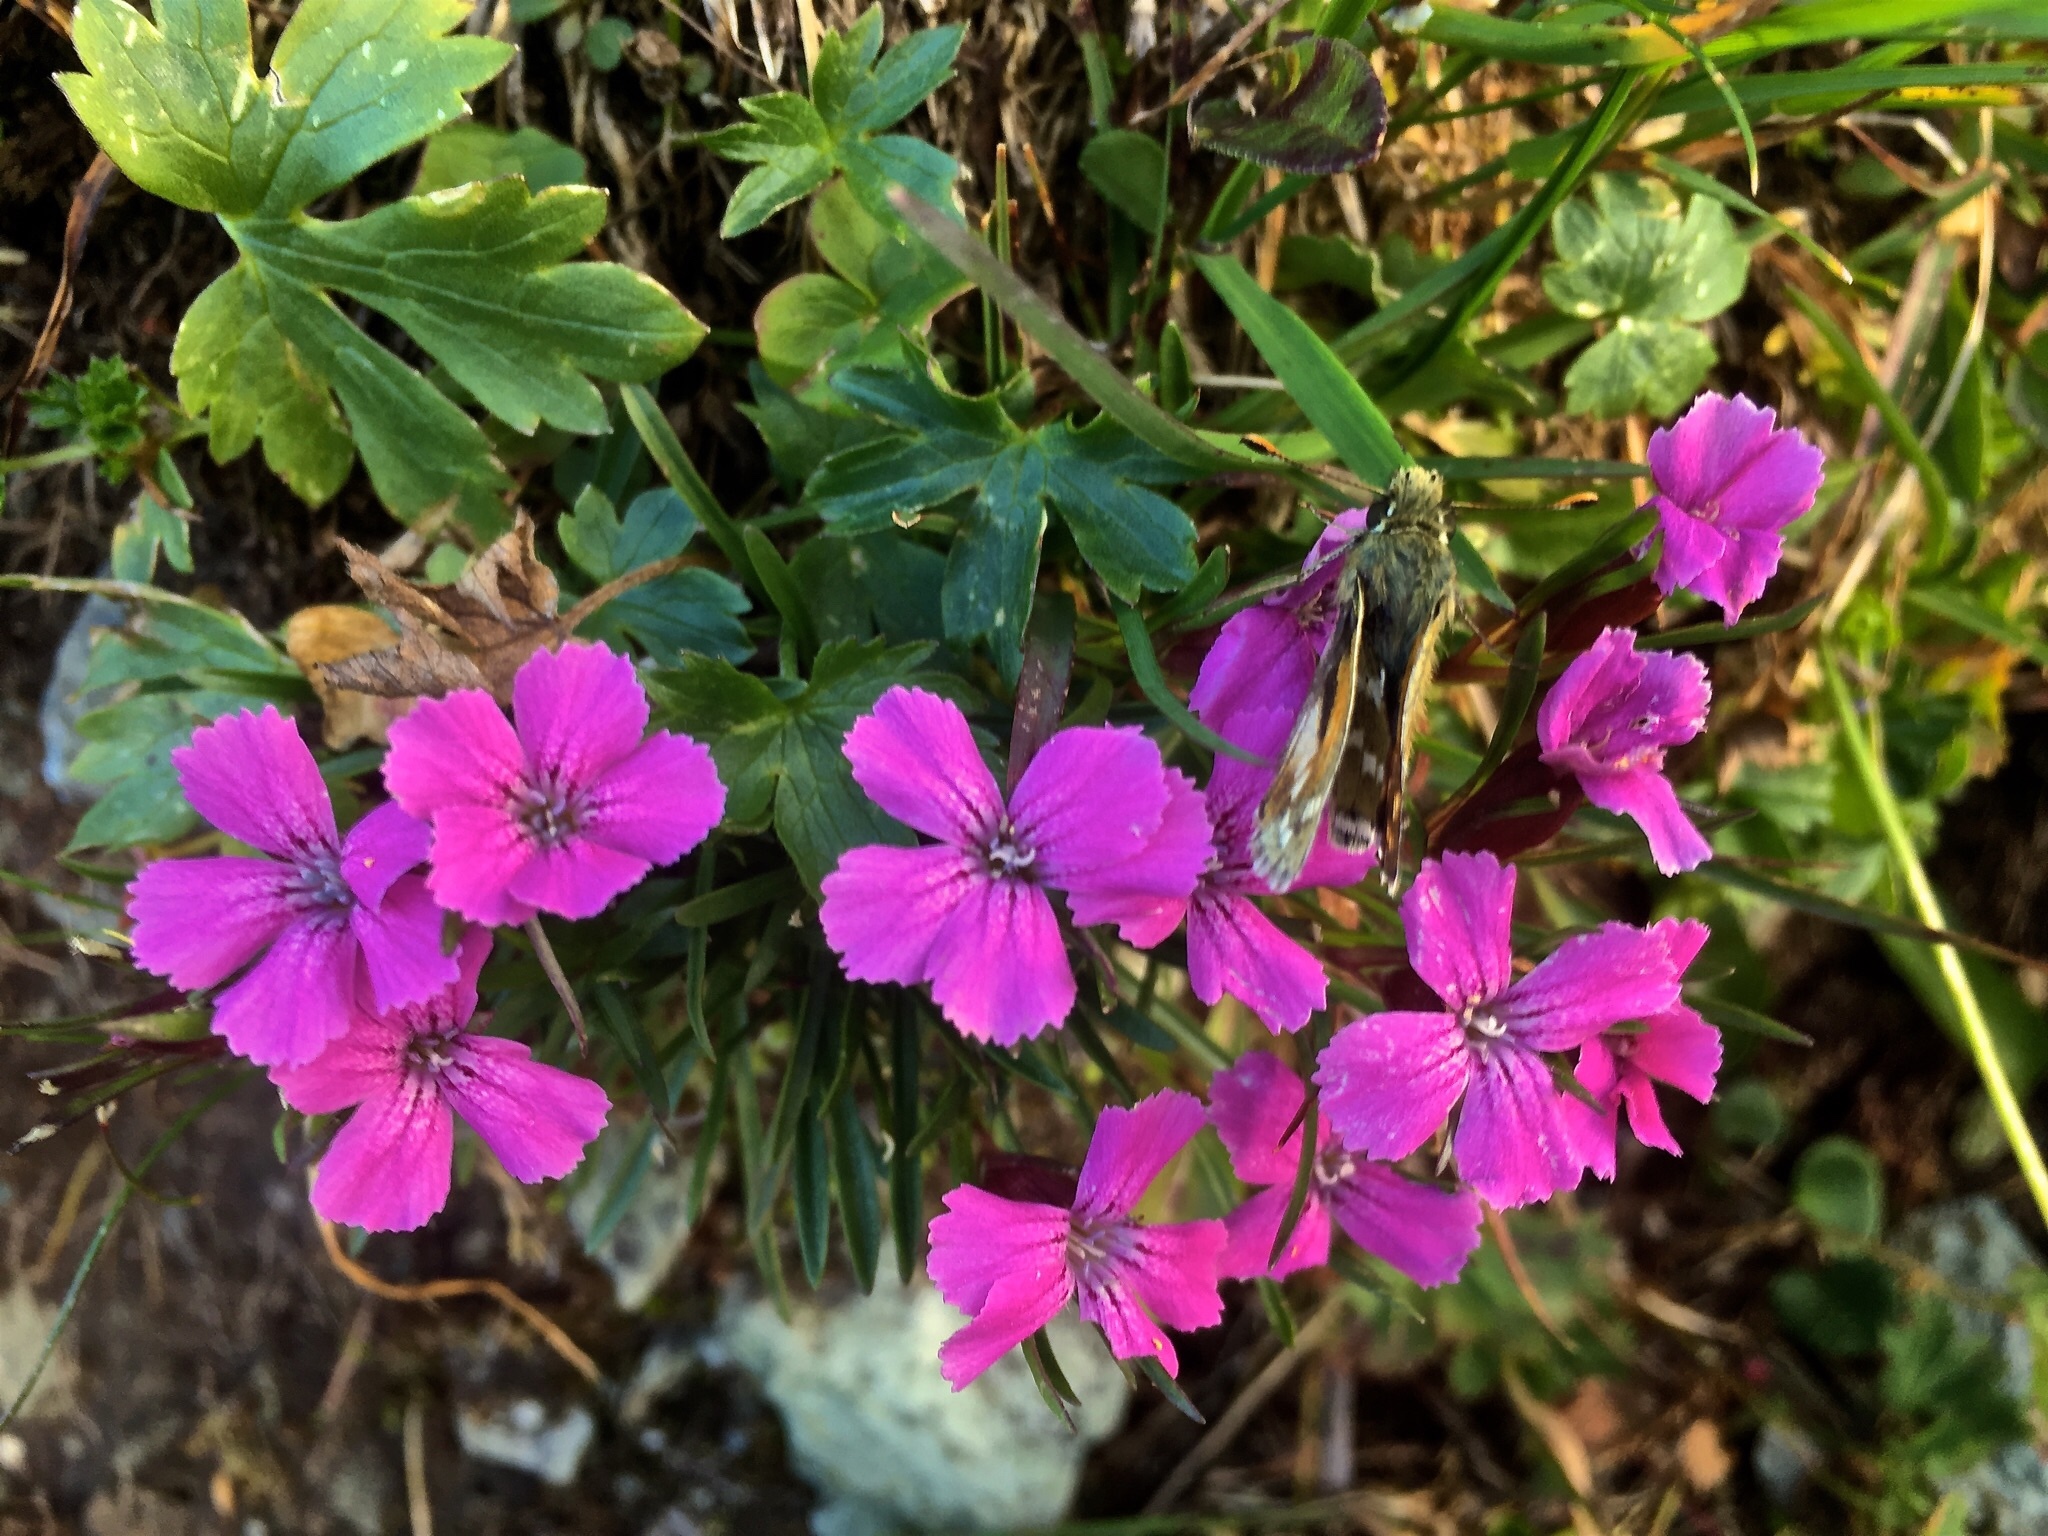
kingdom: Plantae
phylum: Tracheophyta
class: Magnoliopsida
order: Caryophyllales
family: Caryophyllaceae
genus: Dianthus
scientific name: Dianthus glacialis
